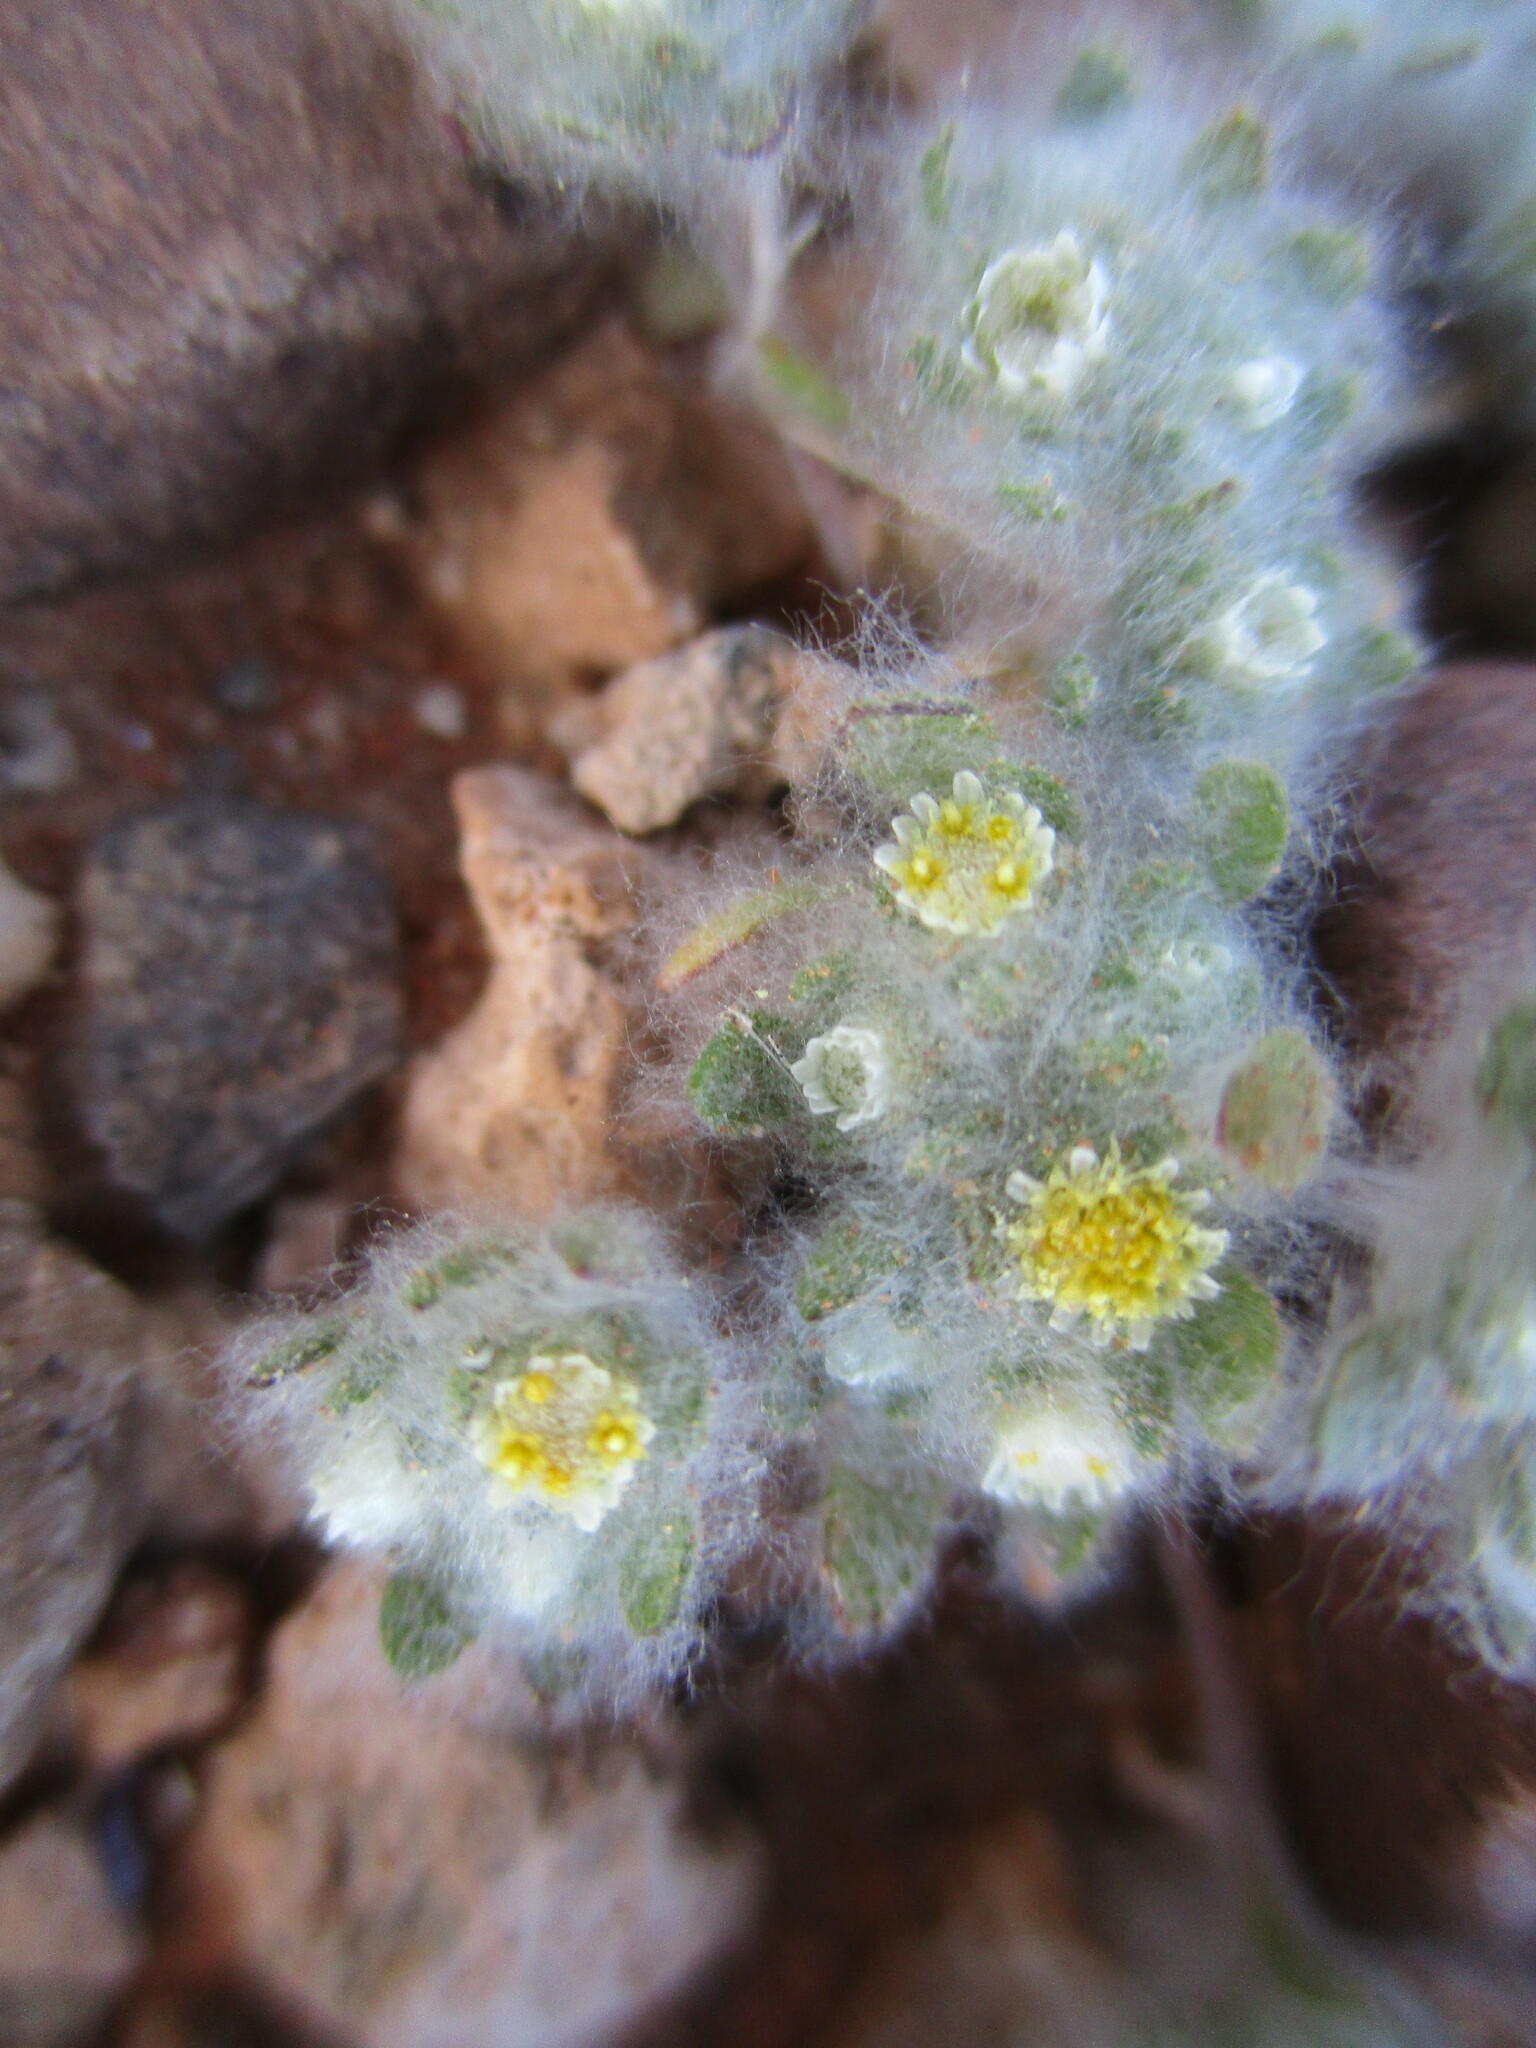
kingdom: Plantae
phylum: Tracheophyta
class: Magnoliopsida
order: Asterales
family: Asteraceae
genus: Helichrysum
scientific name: Helichrysum herniarioides
